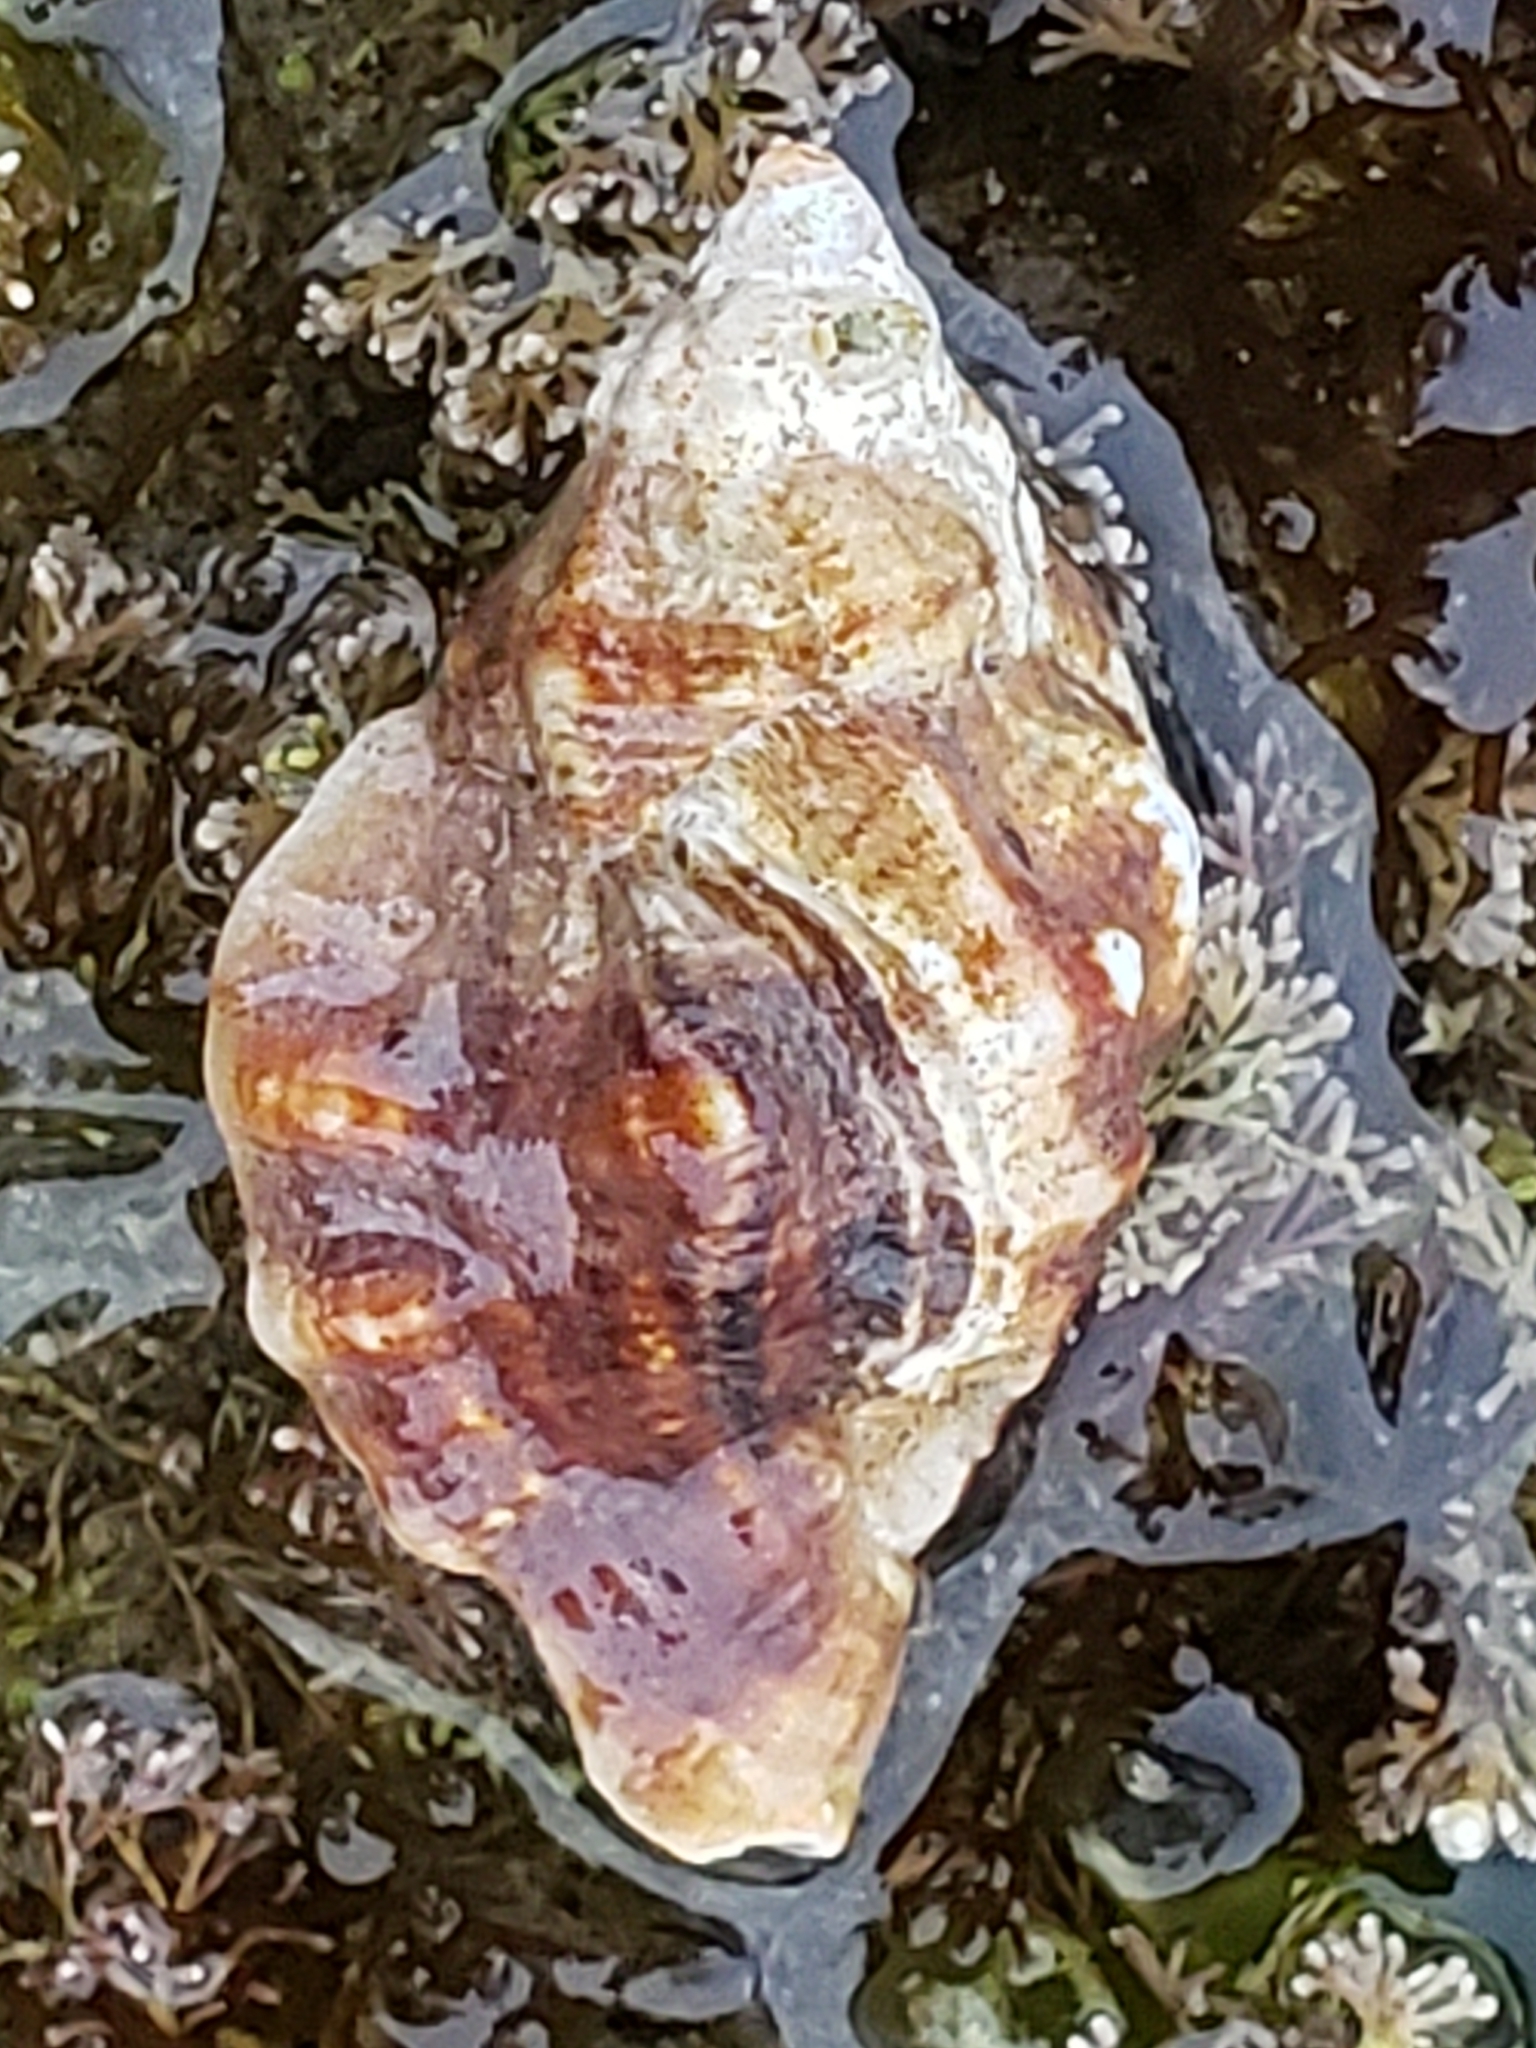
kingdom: Animalia
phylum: Mollusca
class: Gastropoda
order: Neogastropoda
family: Muricidae
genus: Ceratostoma
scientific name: Ceratostoma nuttalli
